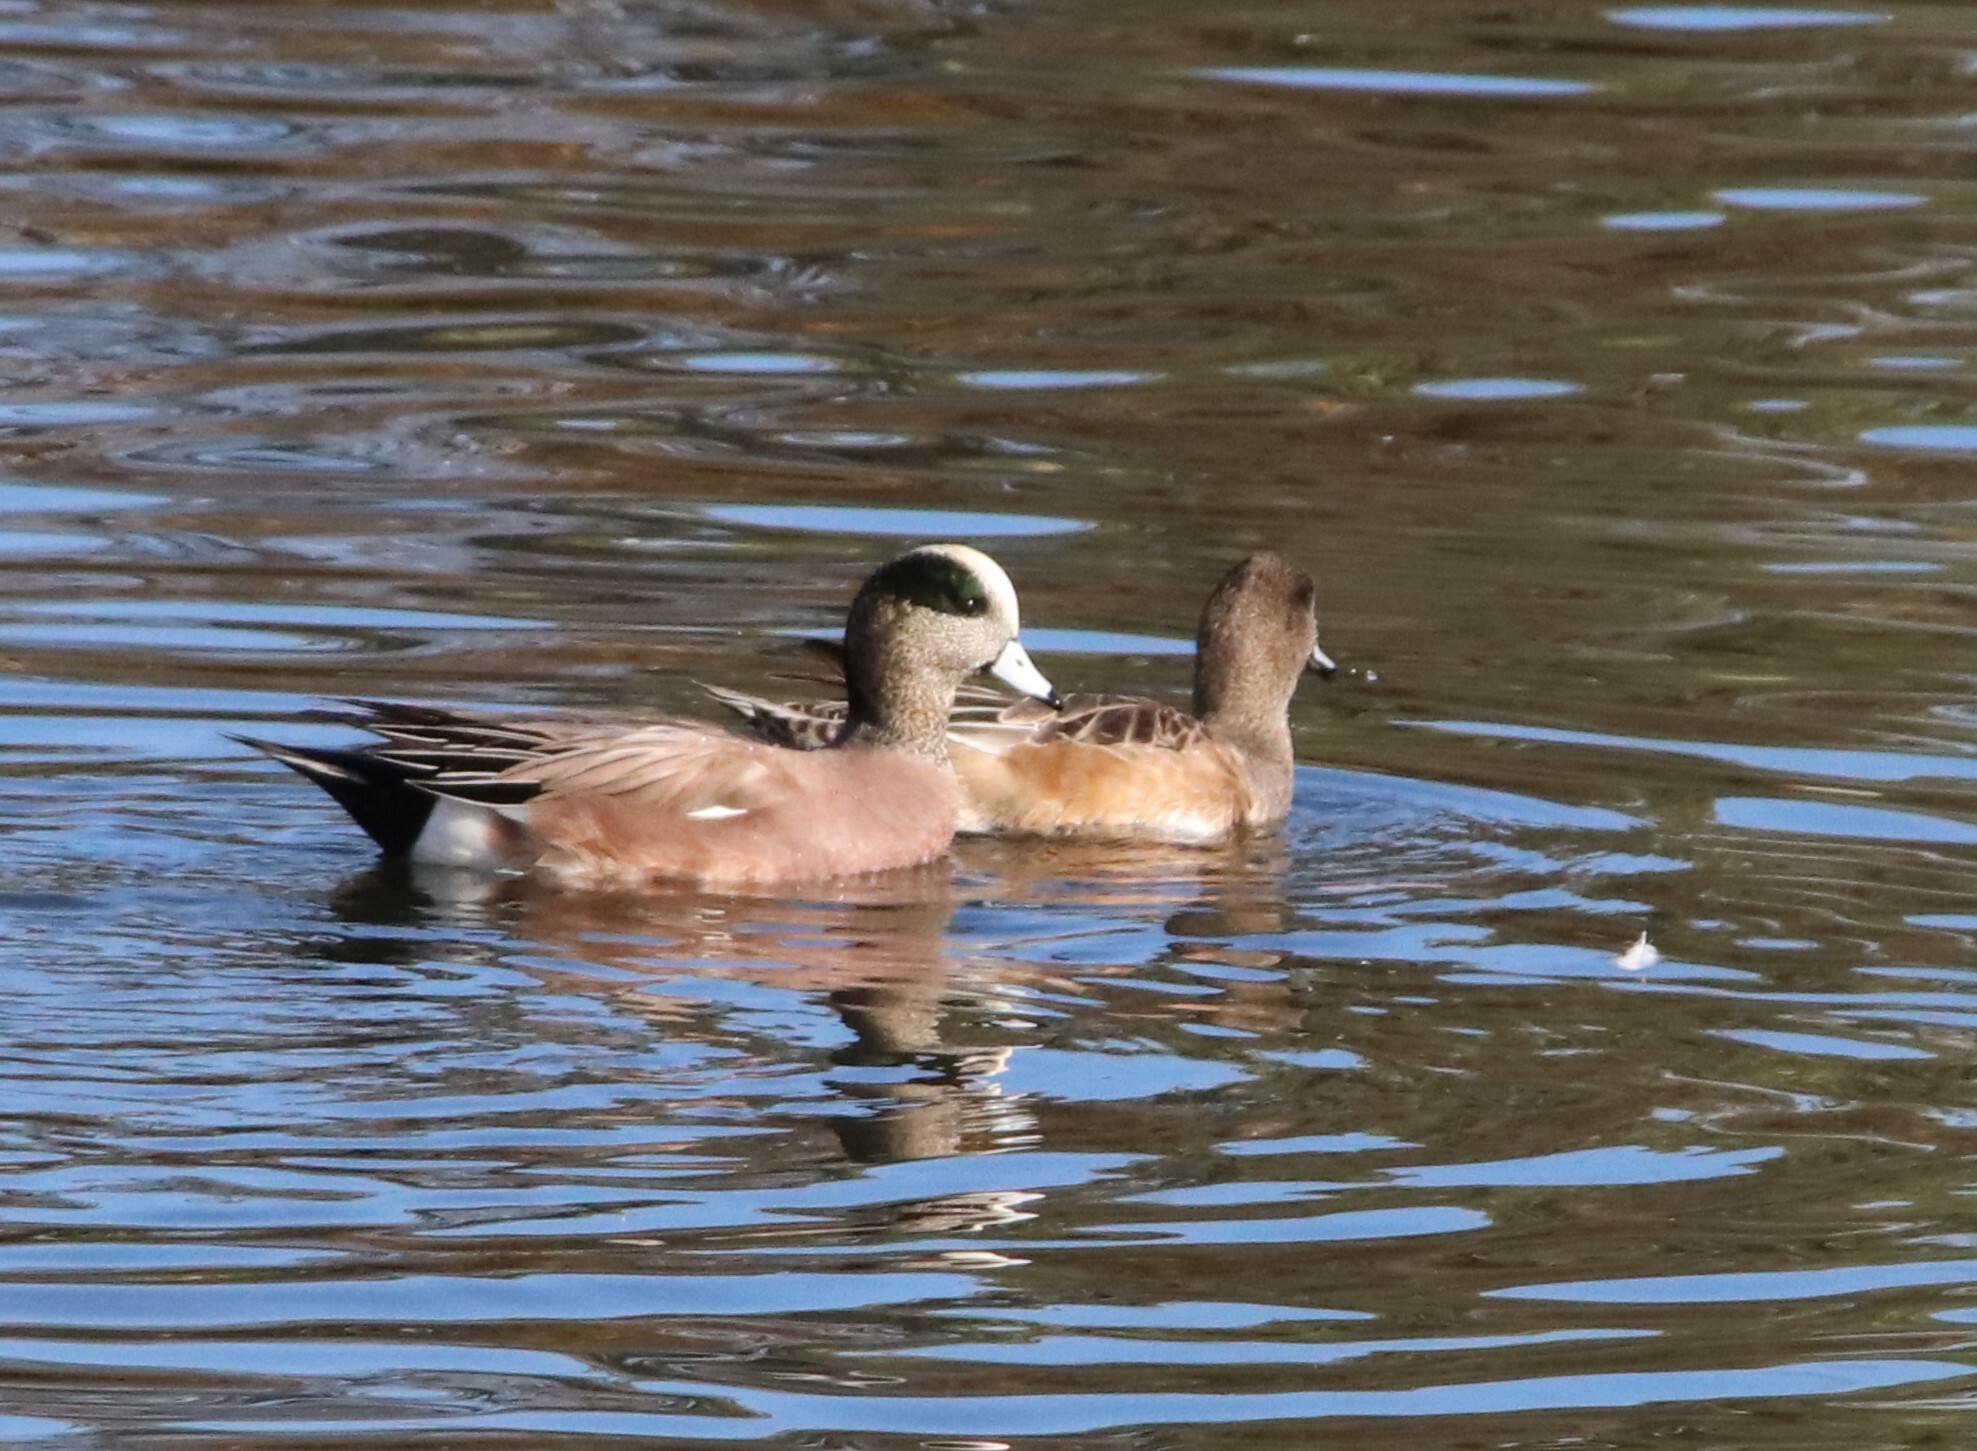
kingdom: Animalia
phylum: Chordata
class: Aves
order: Anseriformes
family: Anatidae
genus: Mareca
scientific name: Mareca americana
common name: American wigeon
